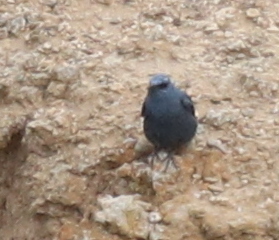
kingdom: Animalia
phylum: Chordata
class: Aves
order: Passeriformes
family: Muscicapidae
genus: Monticola
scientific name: Monticola solitarius
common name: Blue rock thrush
